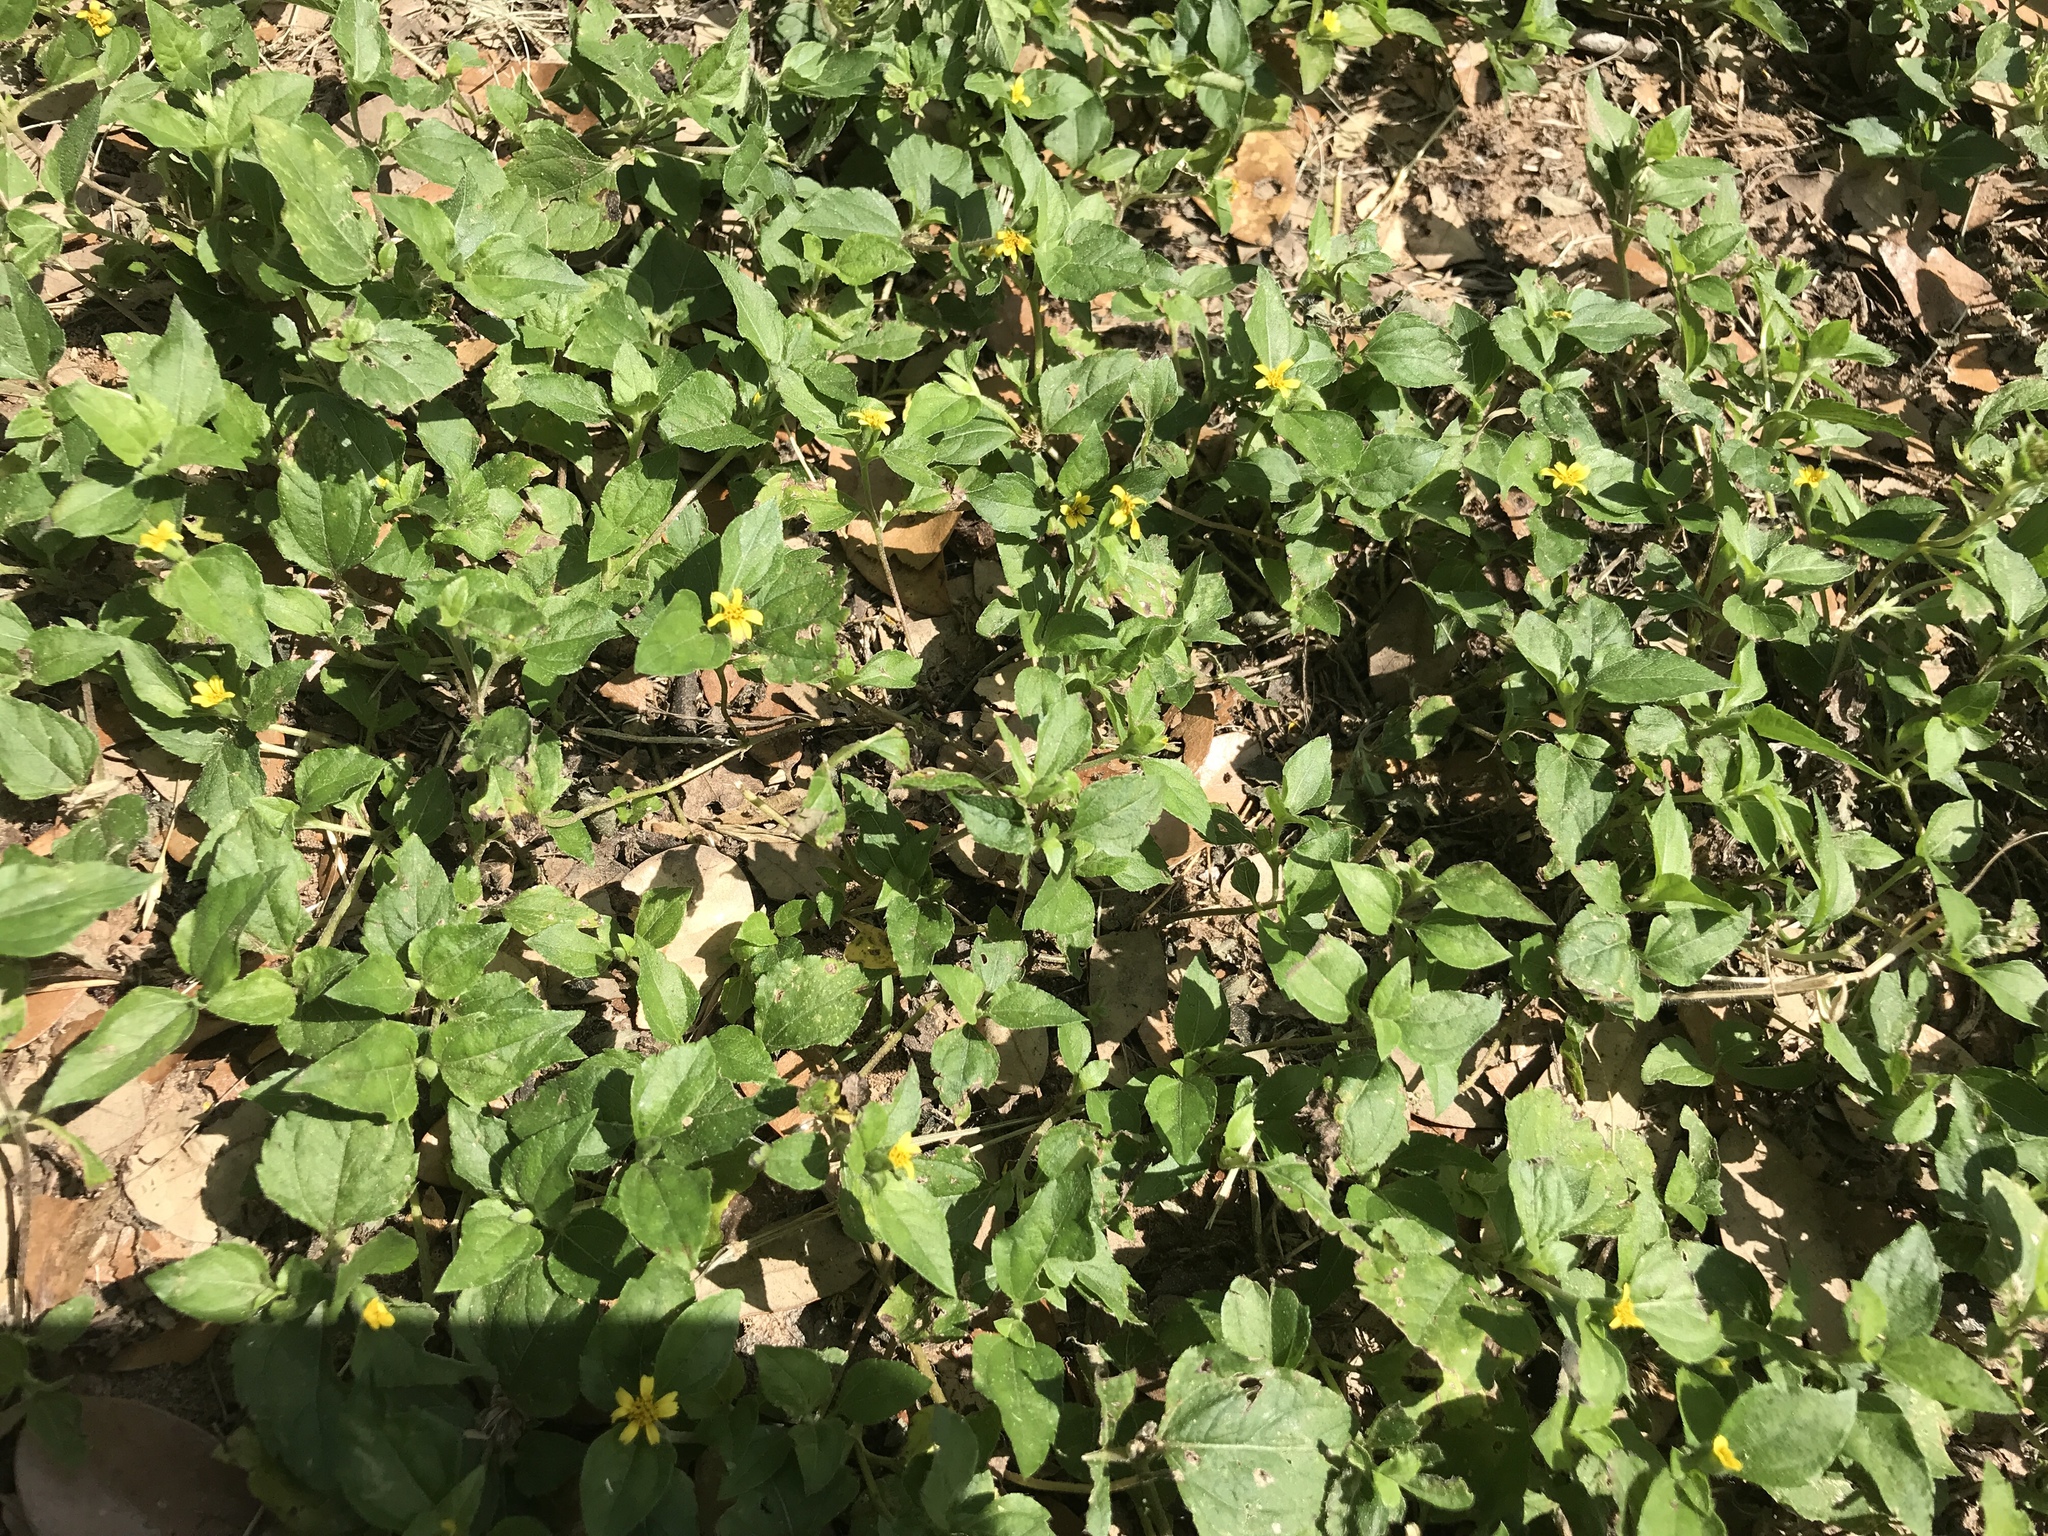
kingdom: Plantae
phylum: Tracheophyta
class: Magnoliopsida
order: Asterales
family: Asteraceae
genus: Calyptocarpus
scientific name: Calyptocarpus vialis
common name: Straggler daisy
